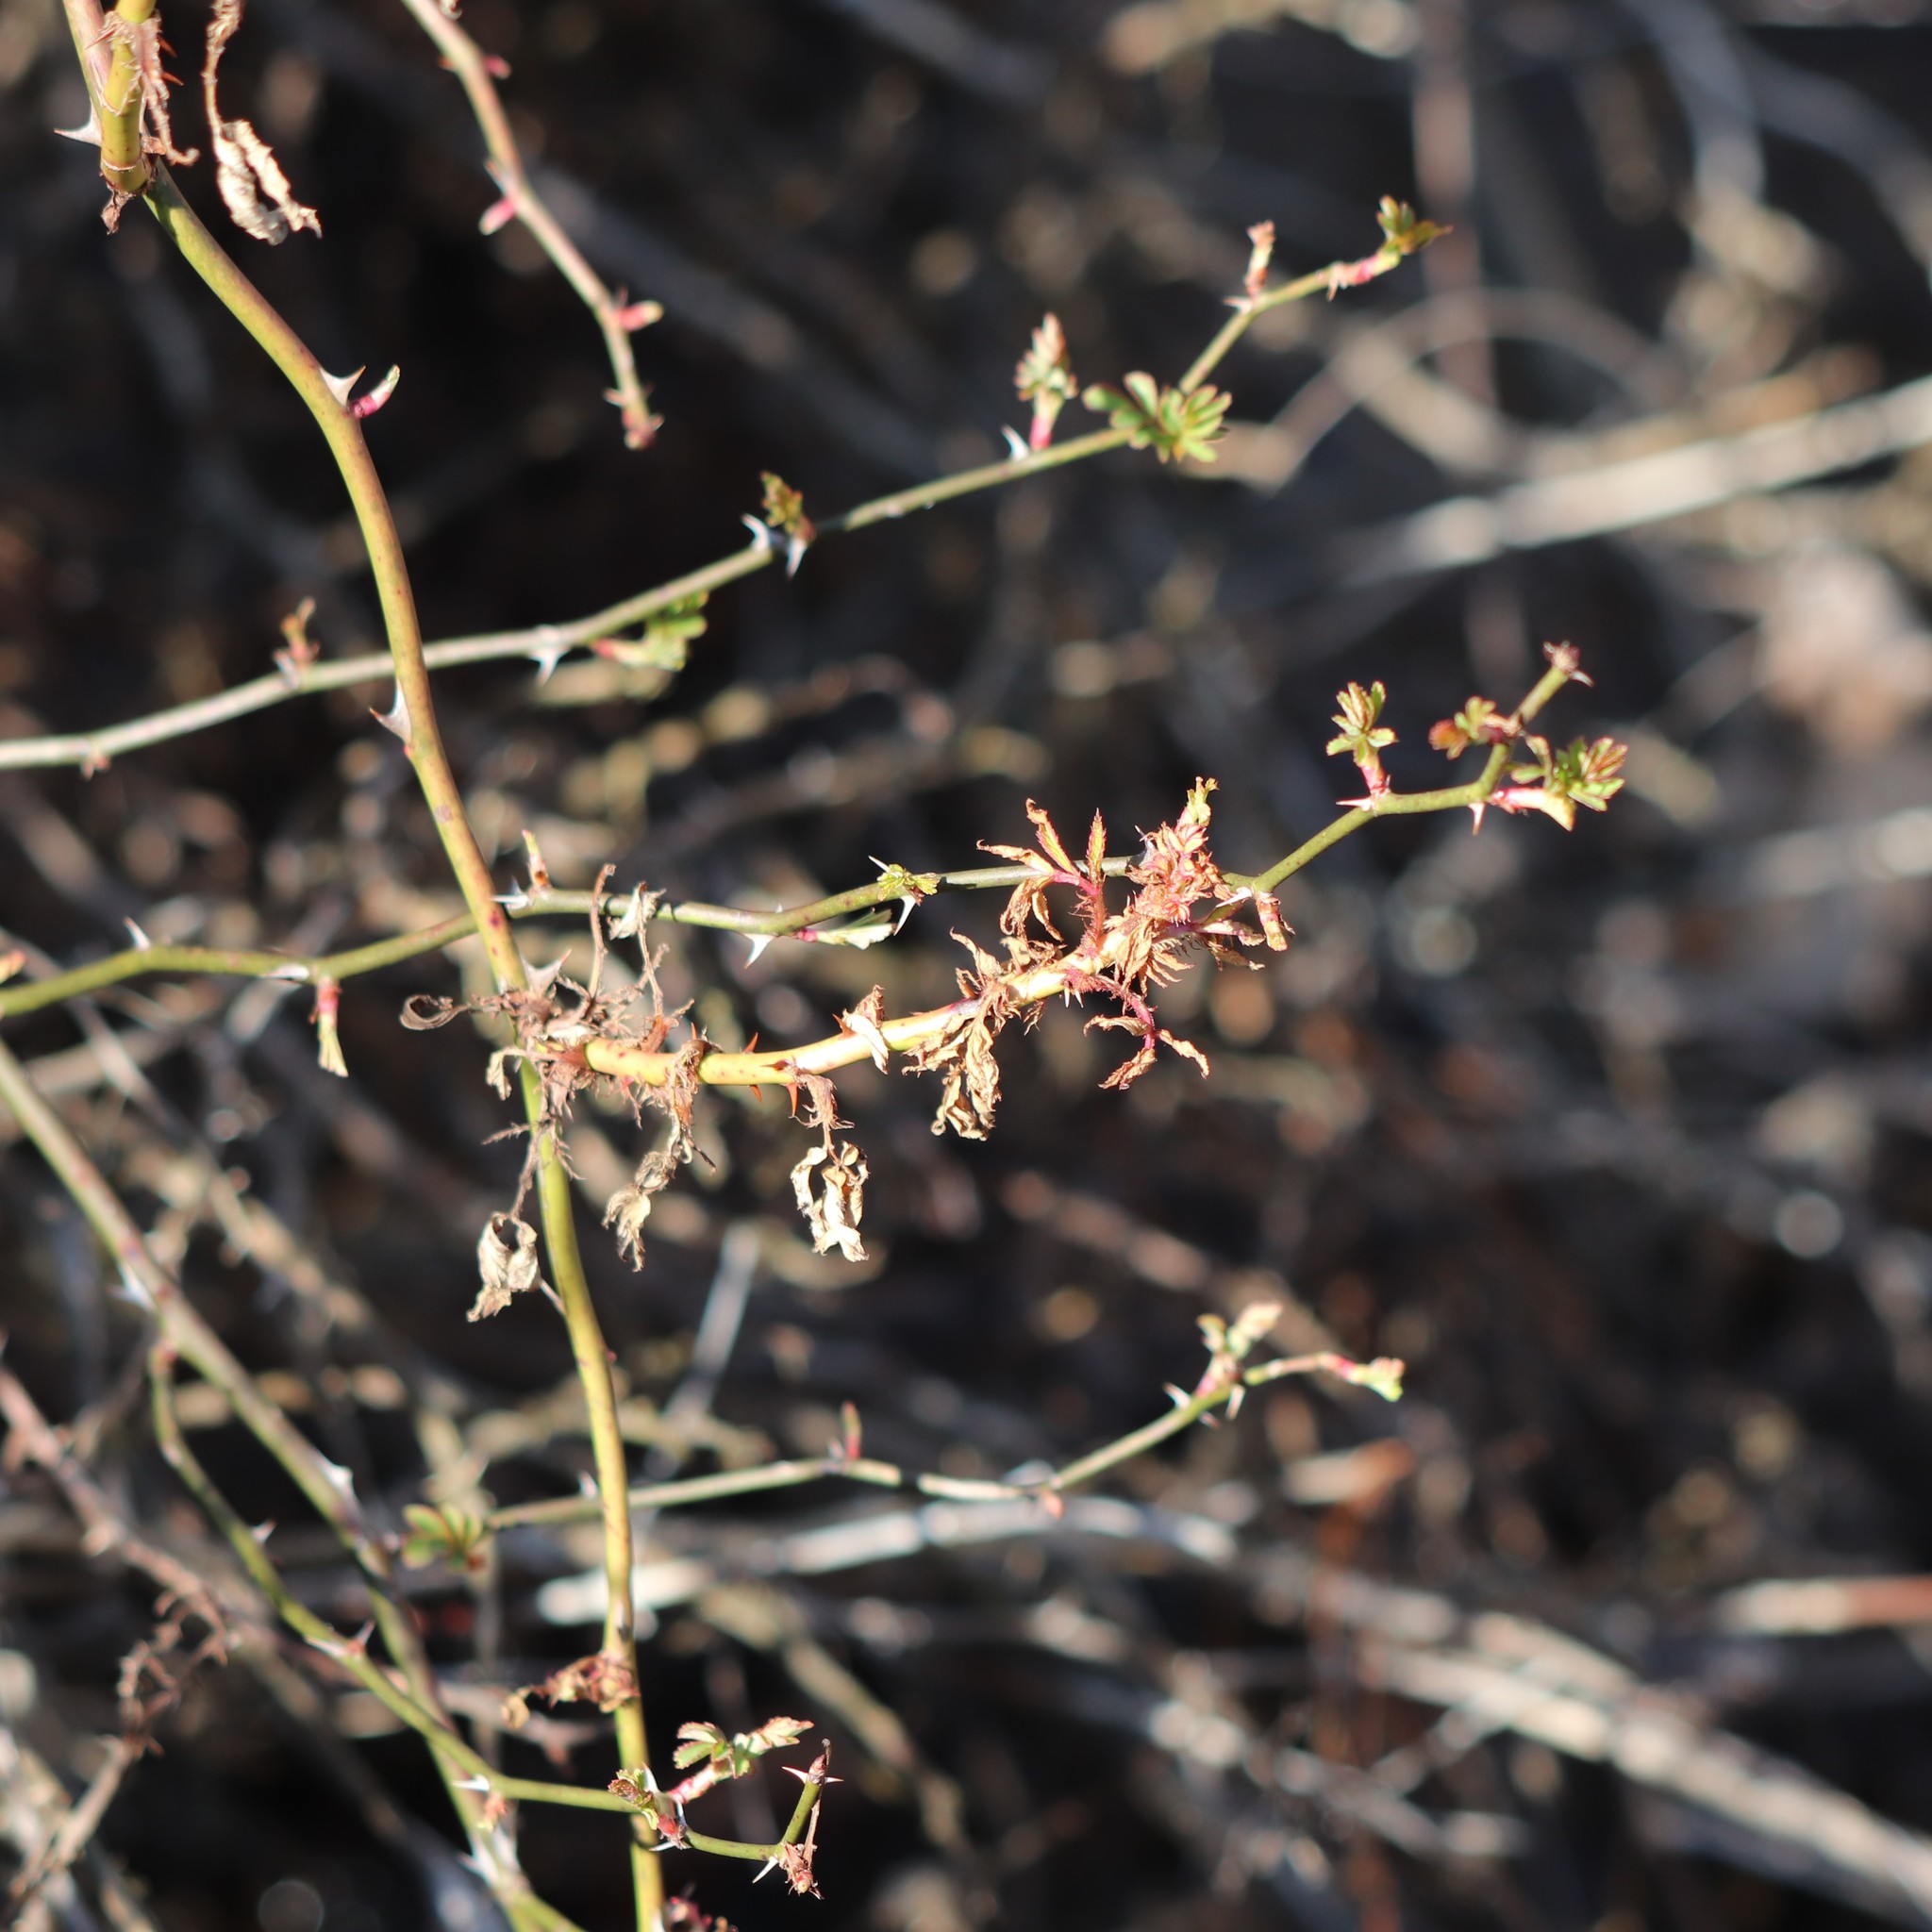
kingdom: Plantae
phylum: Tracheophyta
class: Magnoliopsida
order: Rosales
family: Rosaceae
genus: Rosa
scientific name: Rosa multiflora
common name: Multiflora rose
